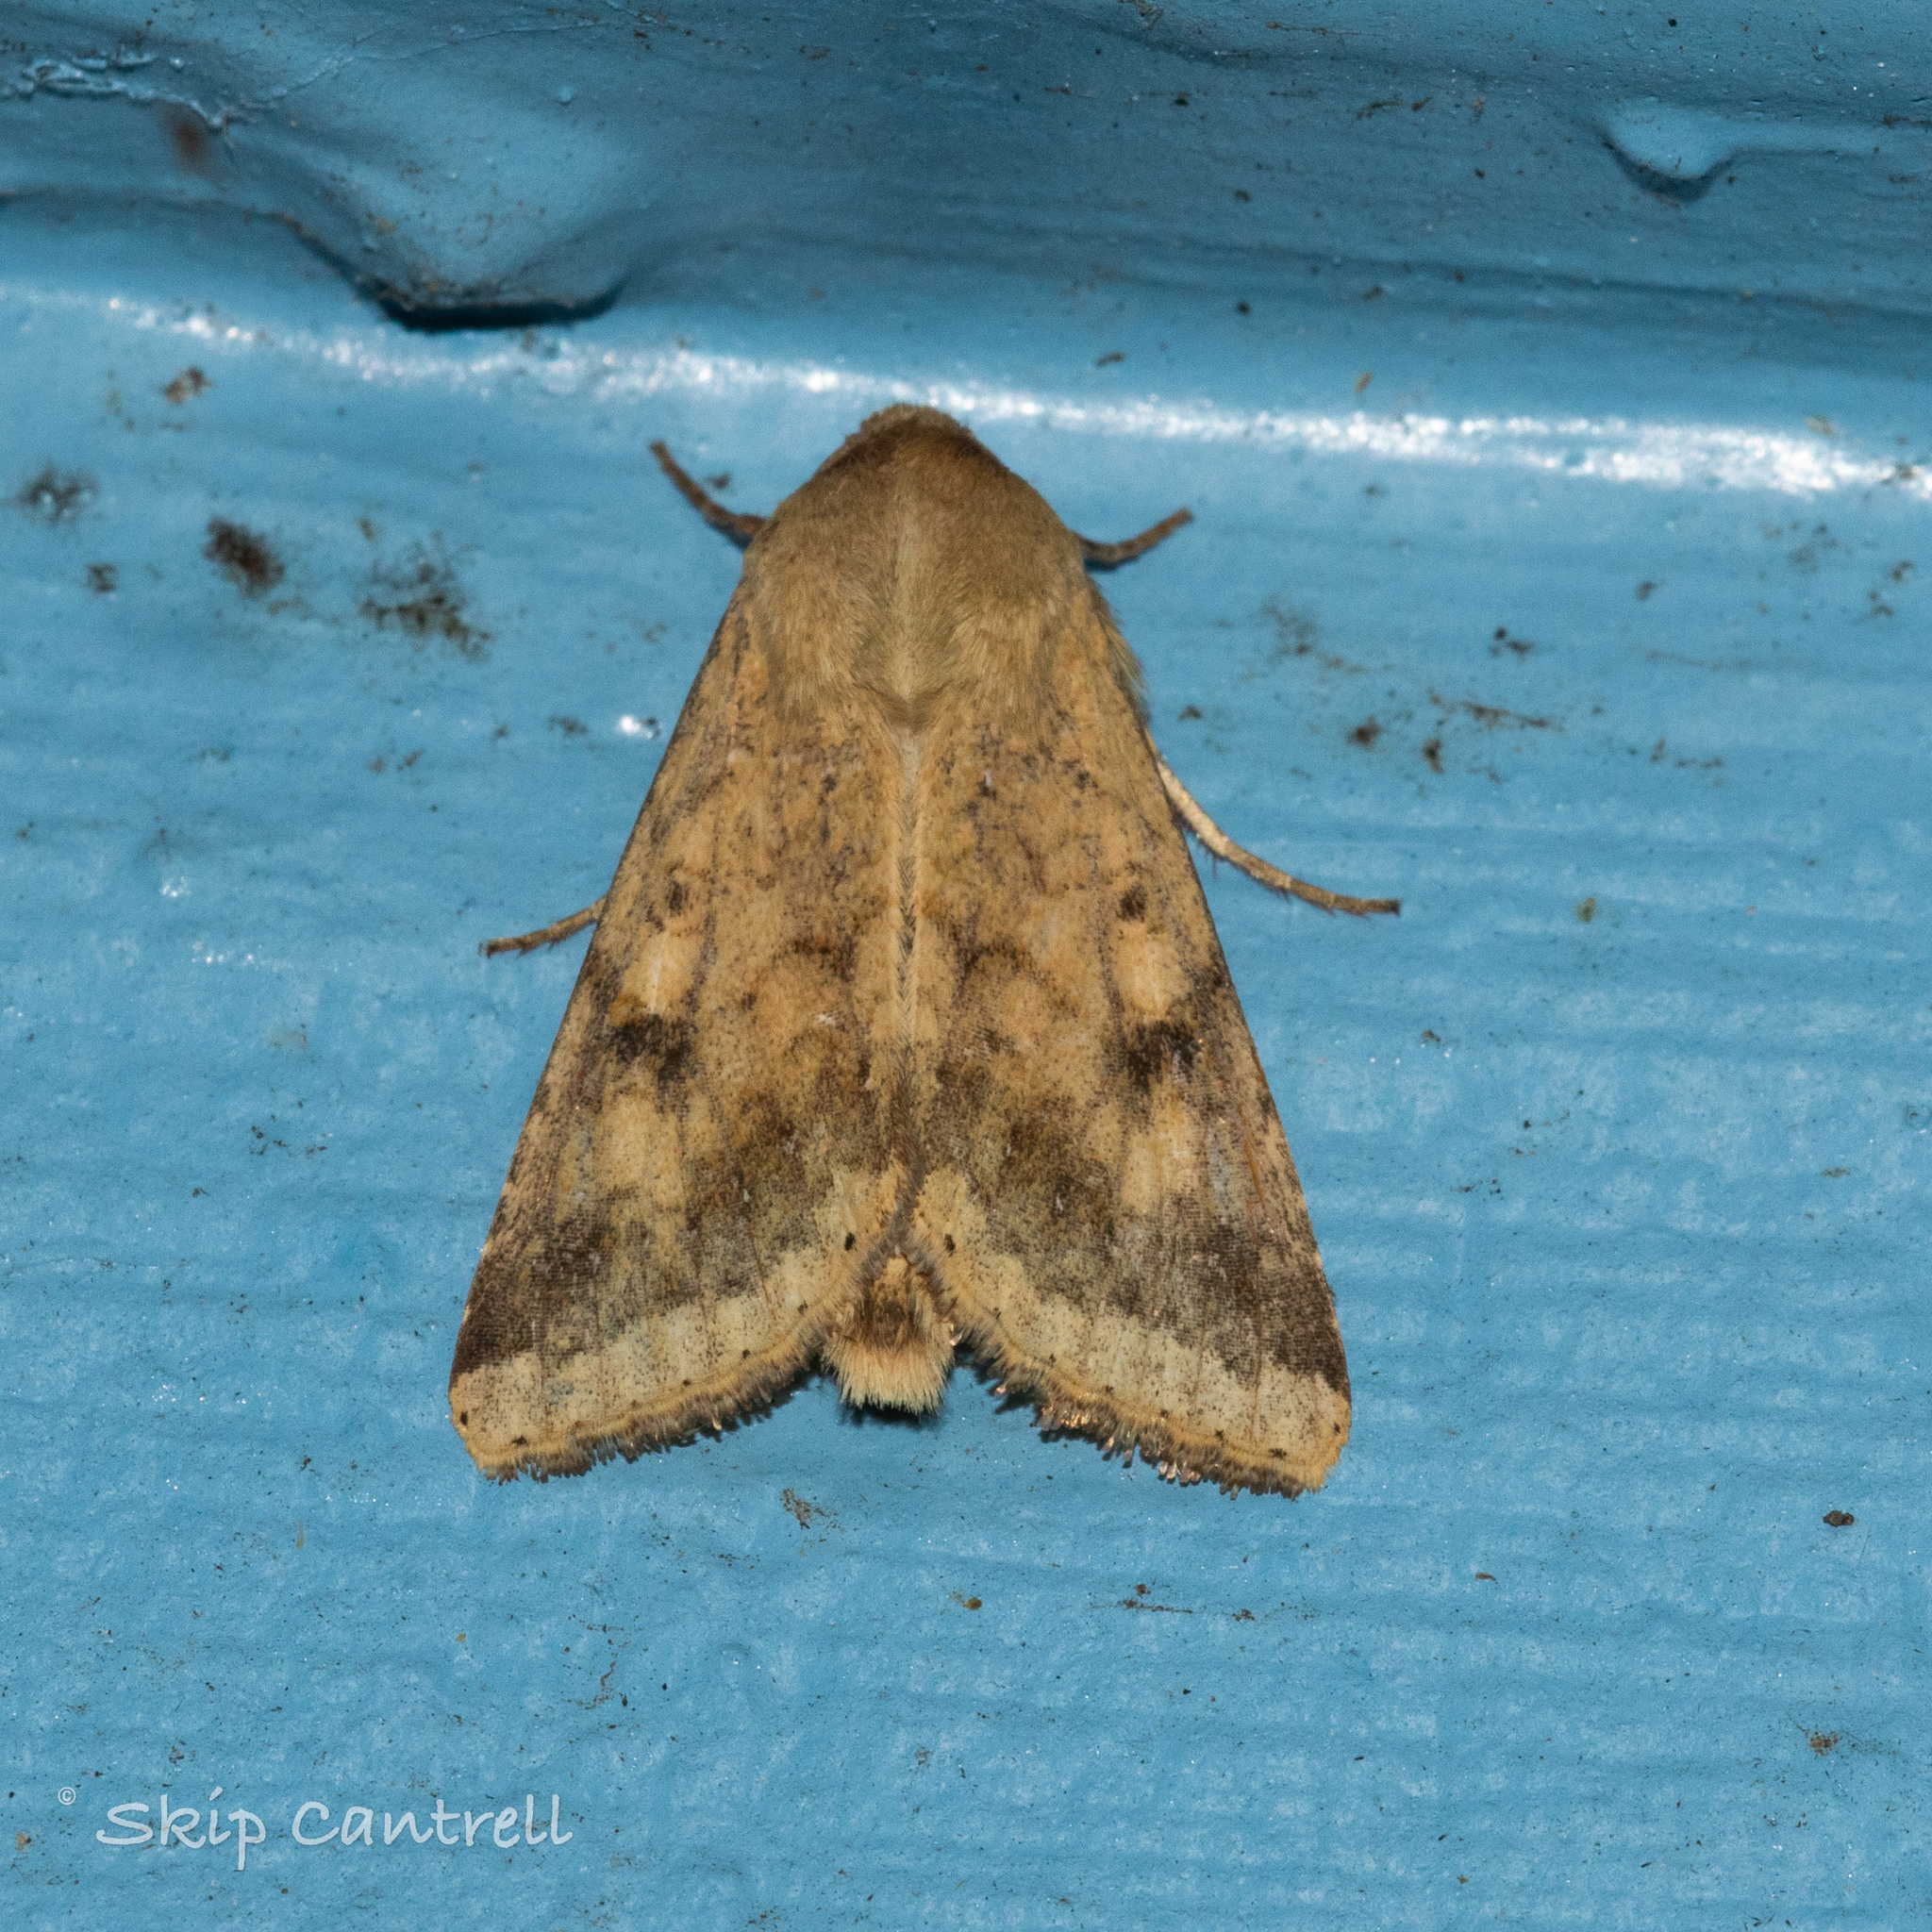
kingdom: Animalia
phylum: Arthropoda
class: Insecta
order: Lepidoptera
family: Noctuidae
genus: Helicoverpa
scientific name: Helicoverpa zea
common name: Bollworm
